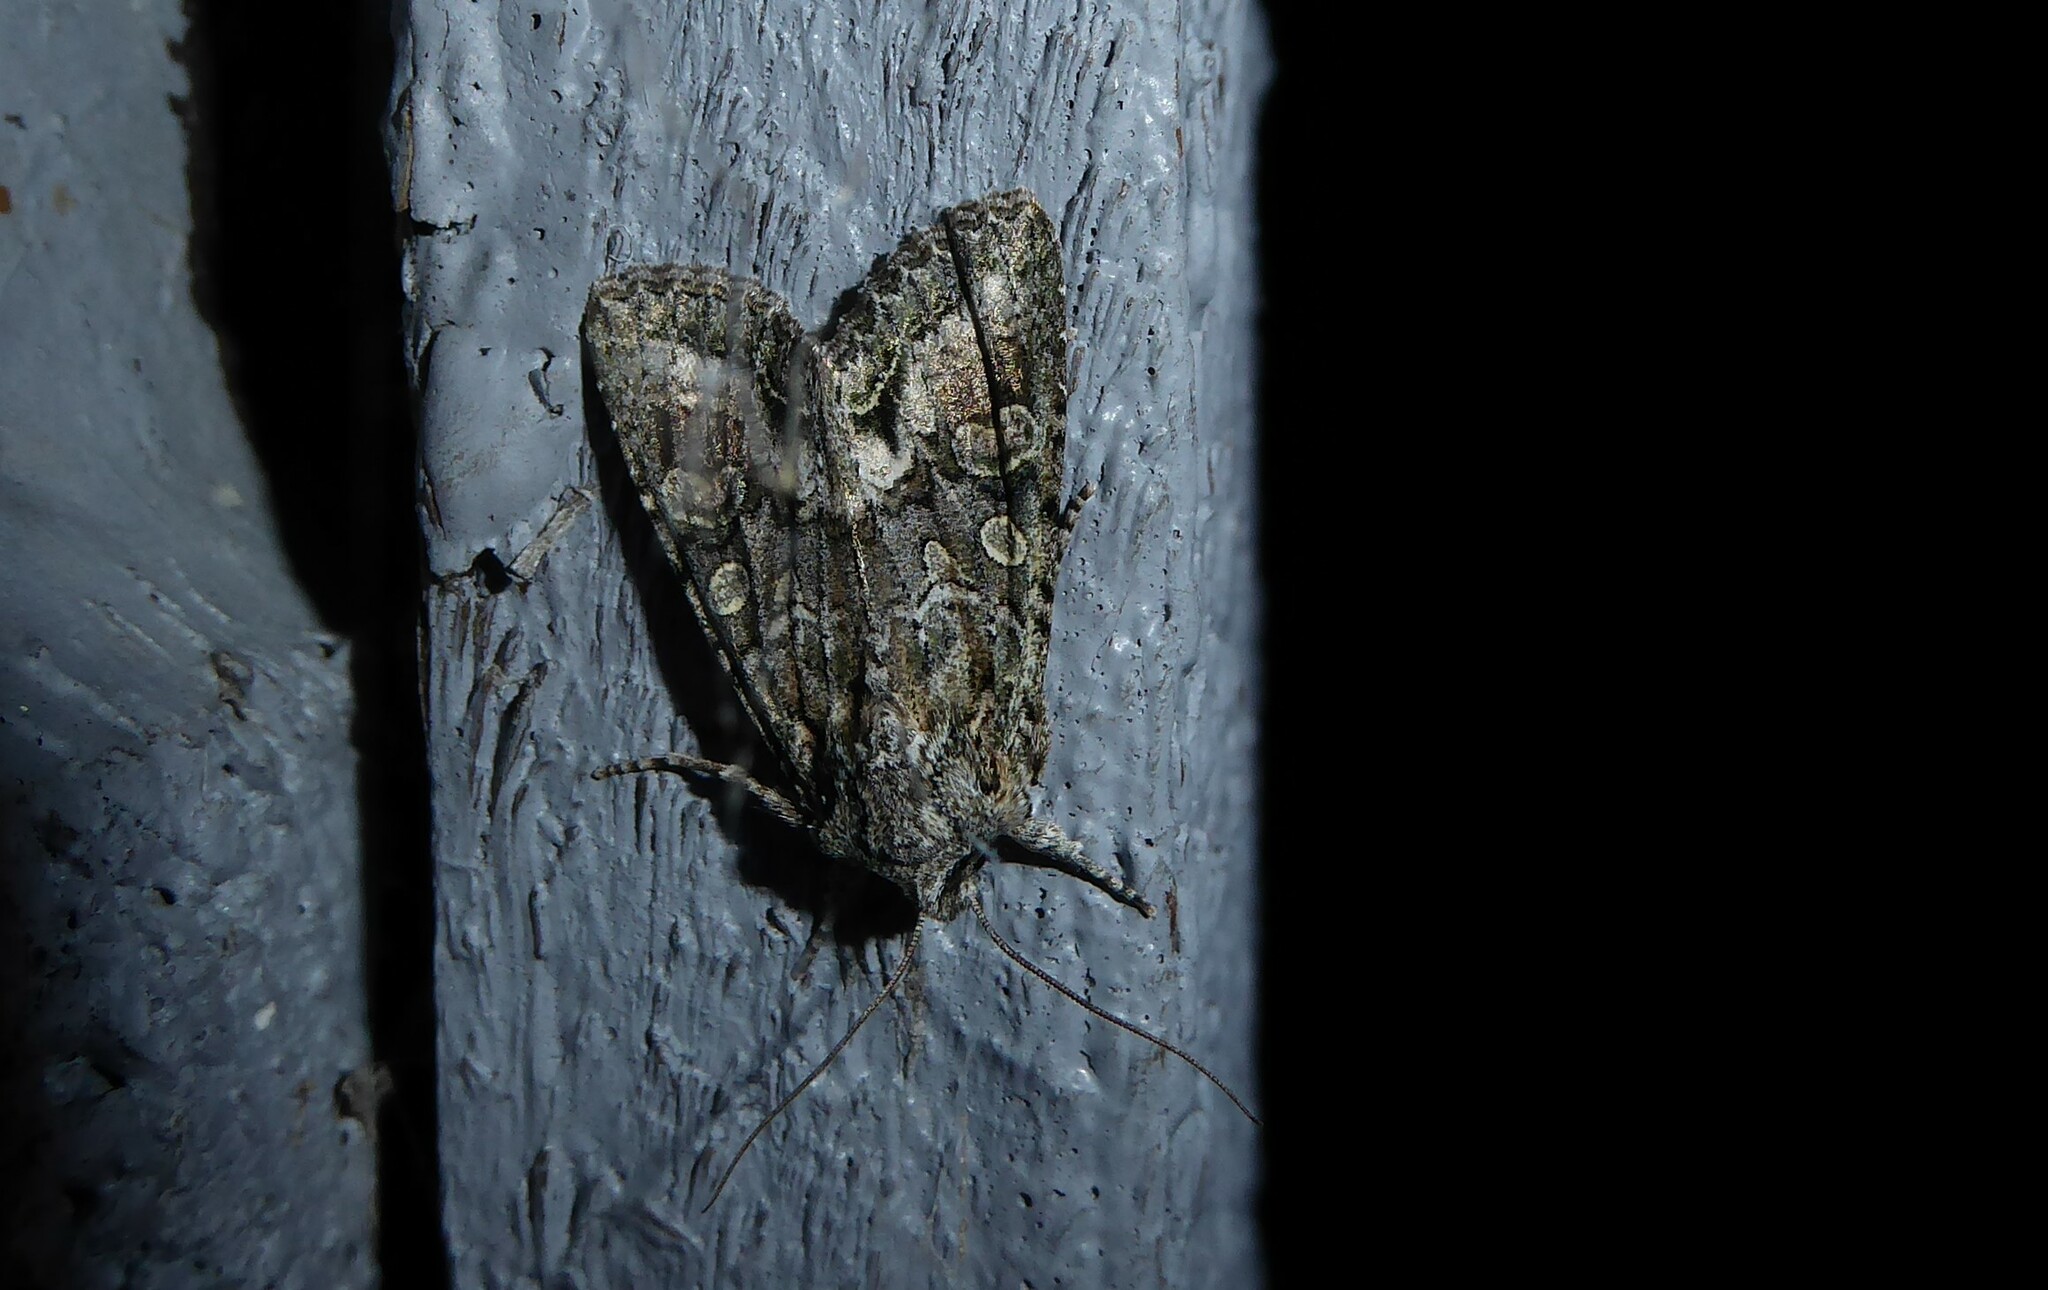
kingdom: Animalia
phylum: Arthropoda
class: Insecta
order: Lepidoptera
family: Noctuidae
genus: Ichneutica
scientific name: Ichneutica mutans
